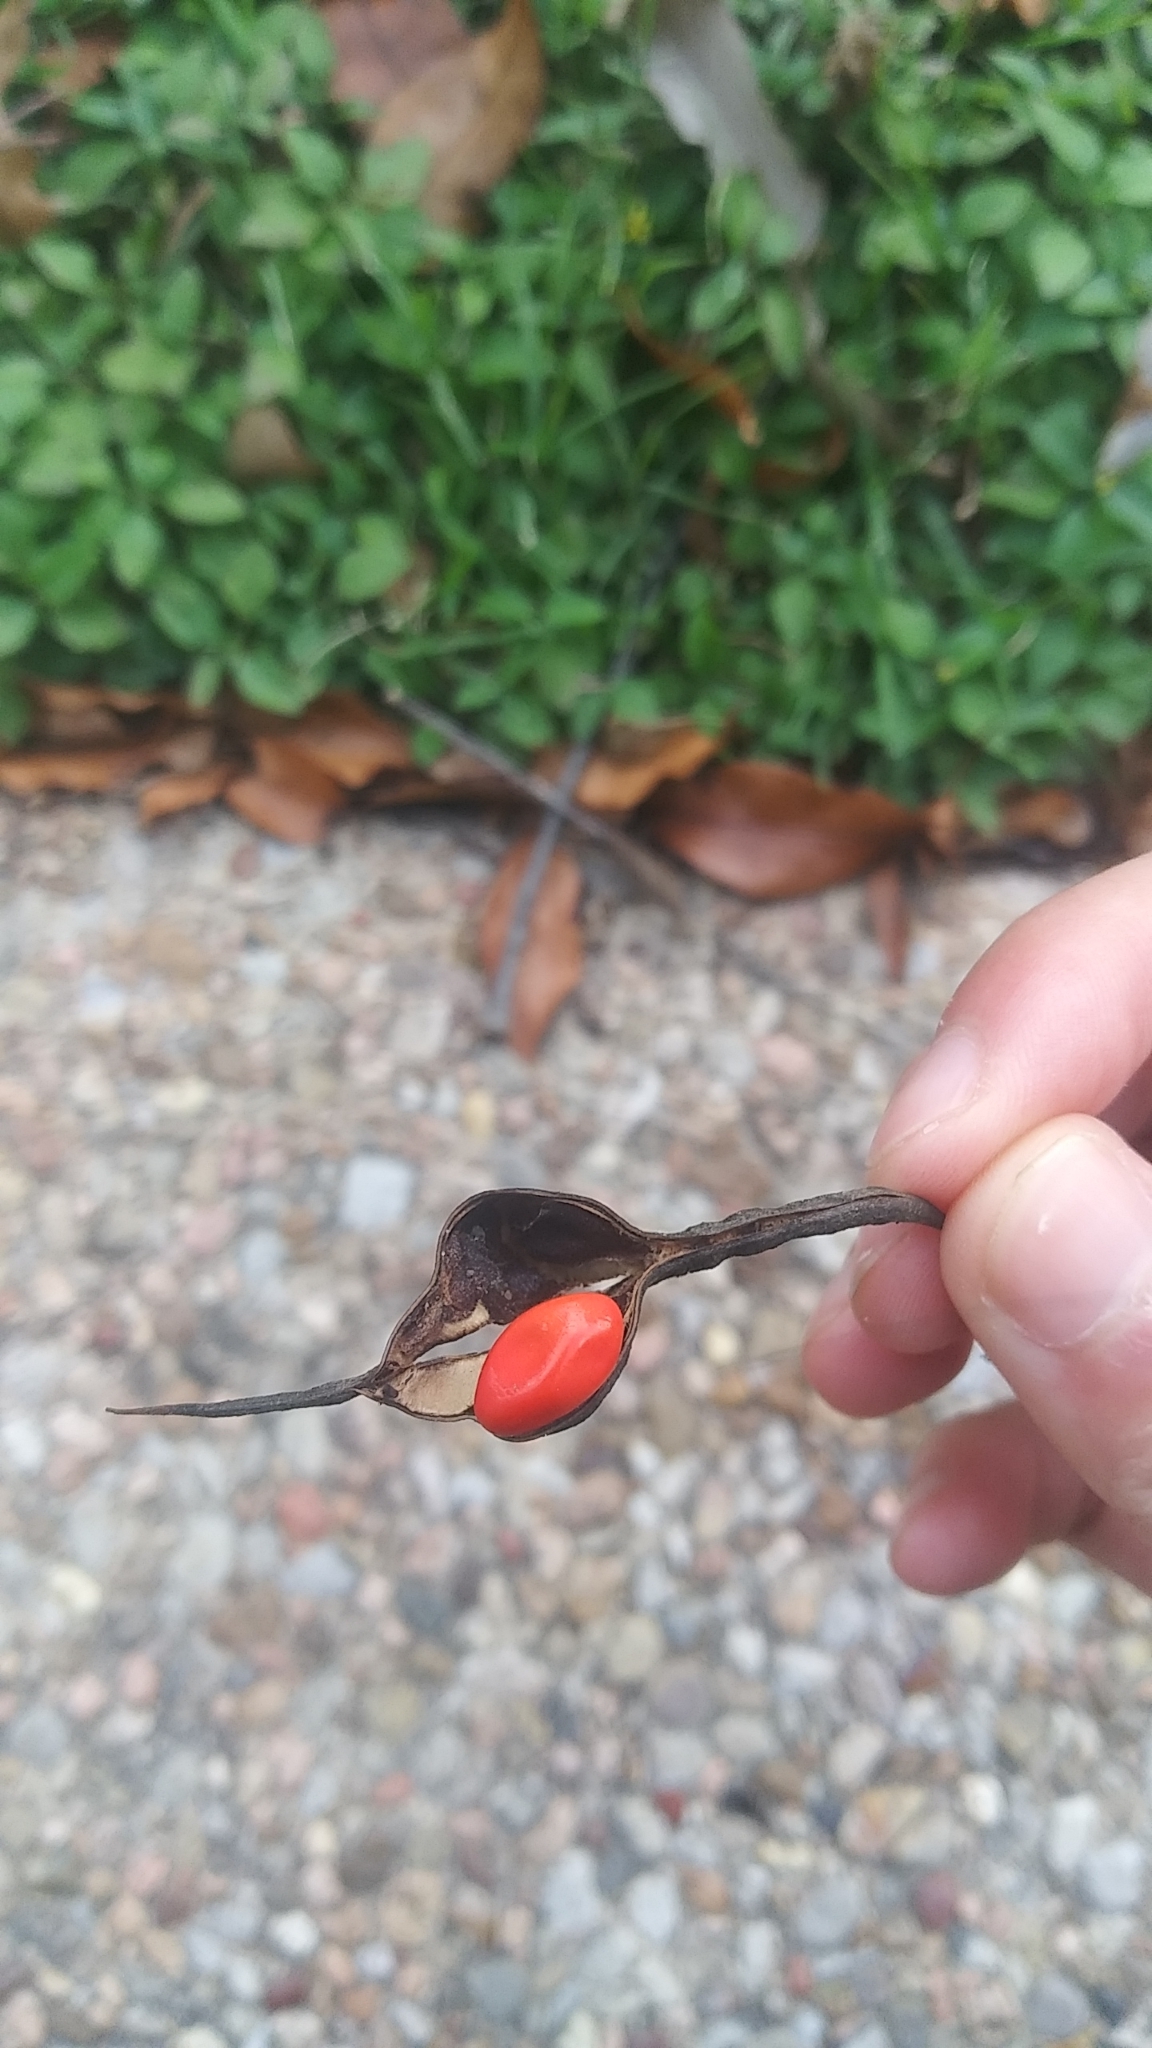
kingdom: Plantae
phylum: Tracheophyta
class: Magnoliopsida
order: Fabales
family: Fabaceae
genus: Dermatophyllum
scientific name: Dermatophyllum secundiflorum
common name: Texas-mountain-laurel
